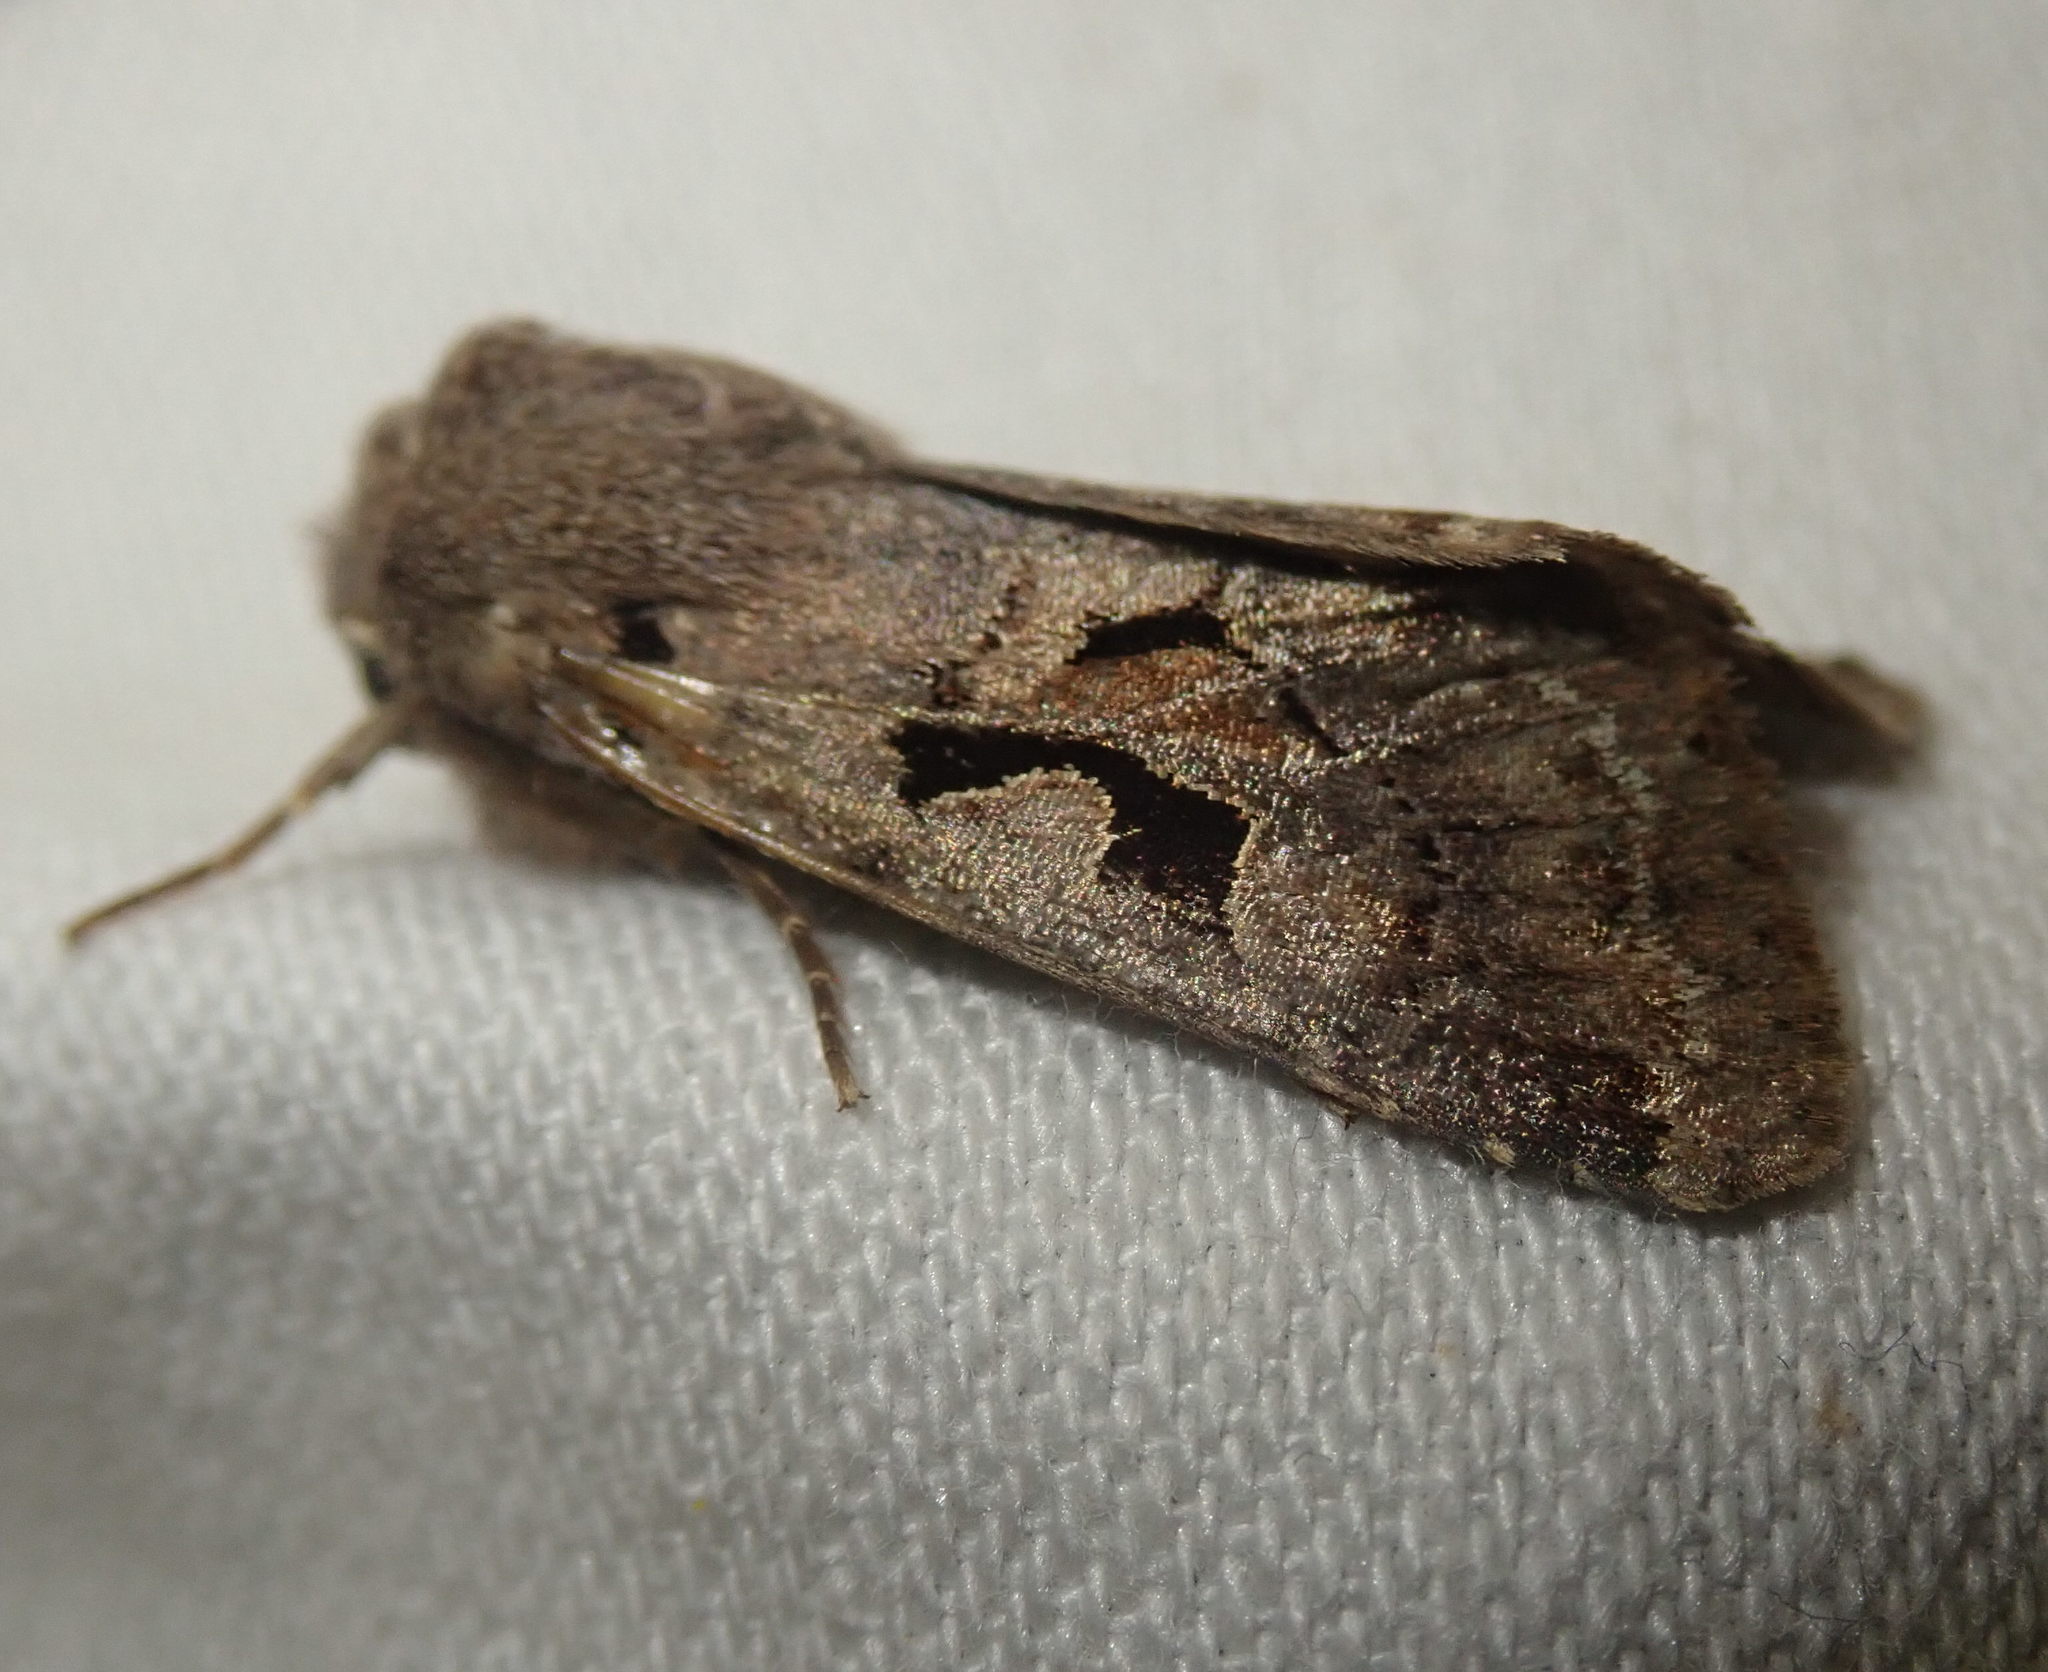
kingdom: Animalia
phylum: Arthropoda
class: Insecta
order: Lepidoptera
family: Noctuidae
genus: Orthosia
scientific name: Orthosia gothica
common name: Hebrew character
